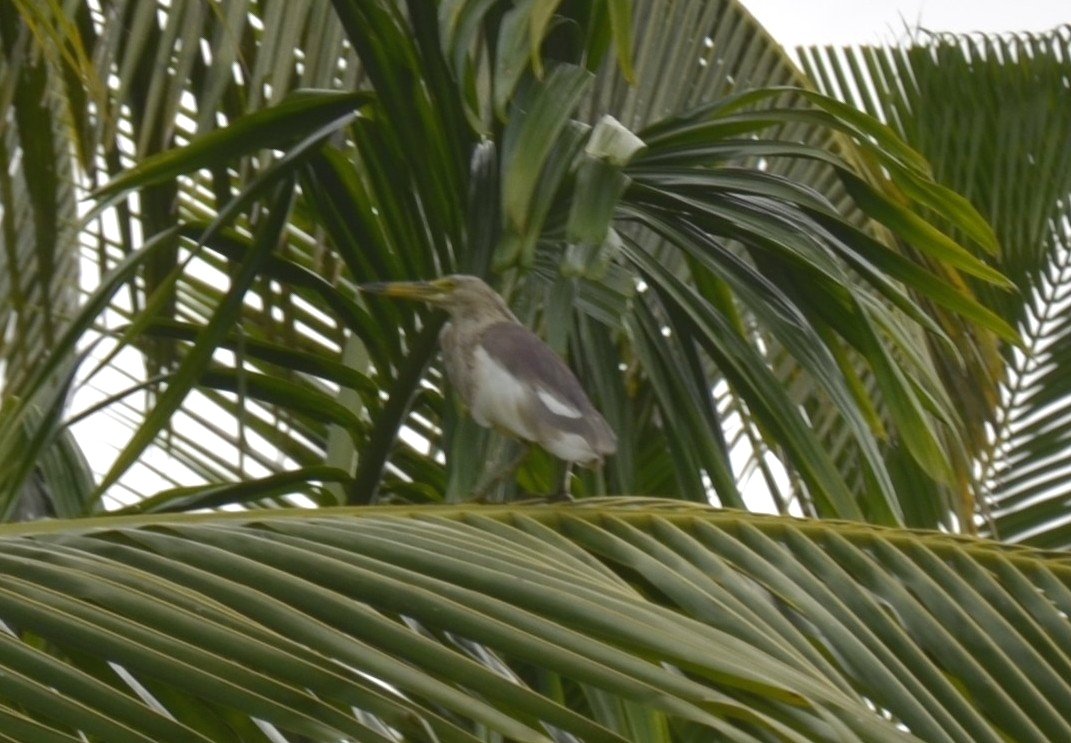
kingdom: Animalia
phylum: Chordata
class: Aves
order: Pelecaniformes
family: Ardeidae
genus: Ardeola
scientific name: Ardeola grayii
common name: Indian pond heron
